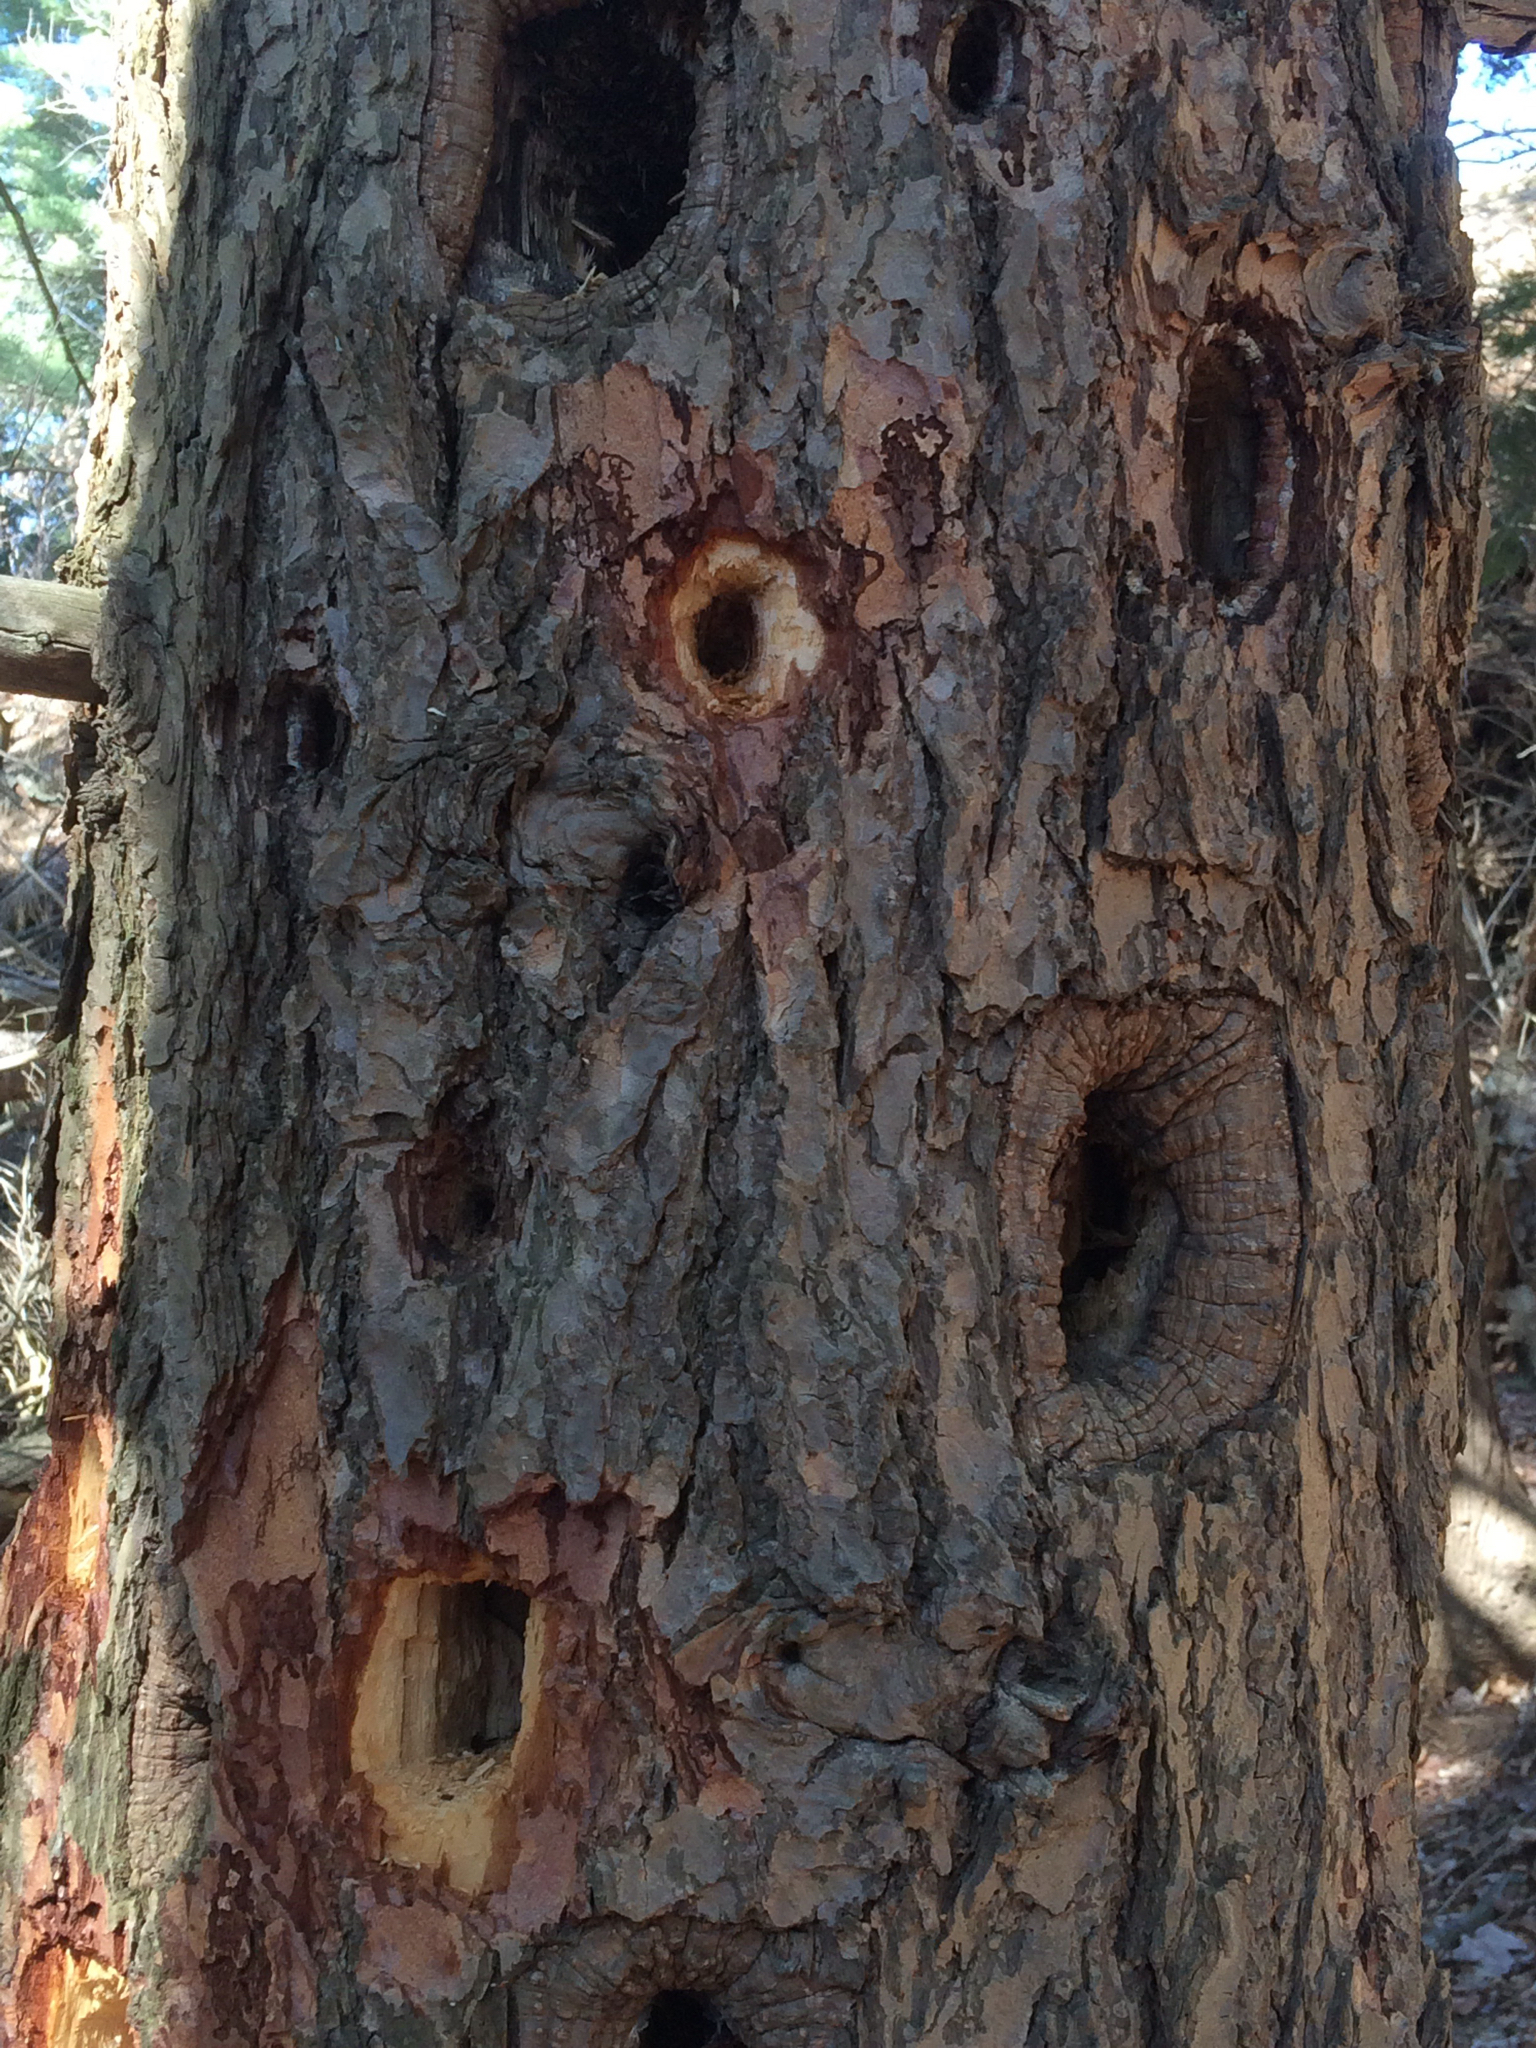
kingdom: Animalia
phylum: Chordata
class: Aves
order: Piciformes
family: Picidae
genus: Dryocopus
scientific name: Dryocopus pileatus
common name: Pileated woodpecker
